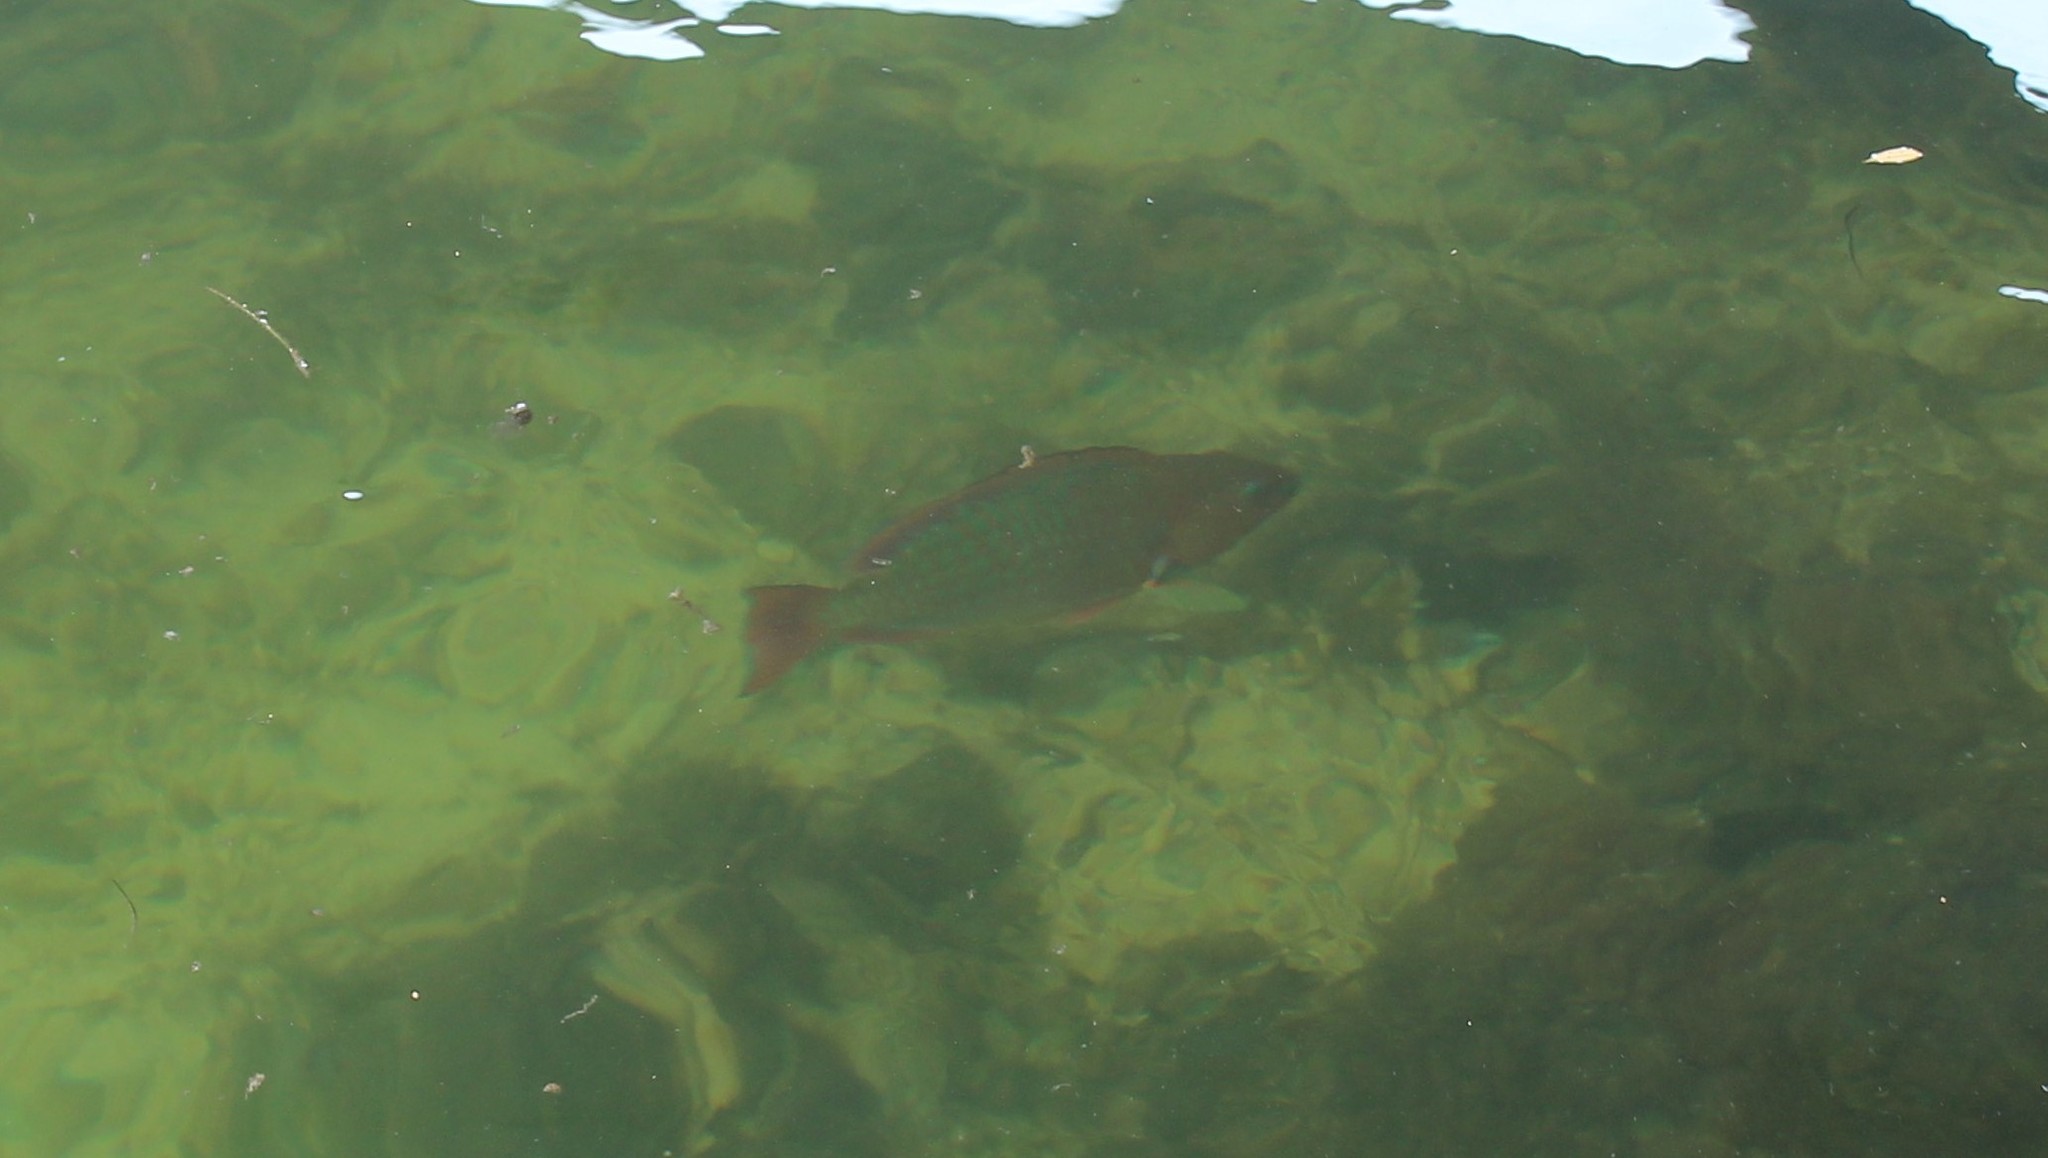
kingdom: Animalia
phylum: Chordata
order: Perciformes
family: Scaridae
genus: Scarus
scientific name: Scarus guacamaia
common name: Rainbow parrotfish
